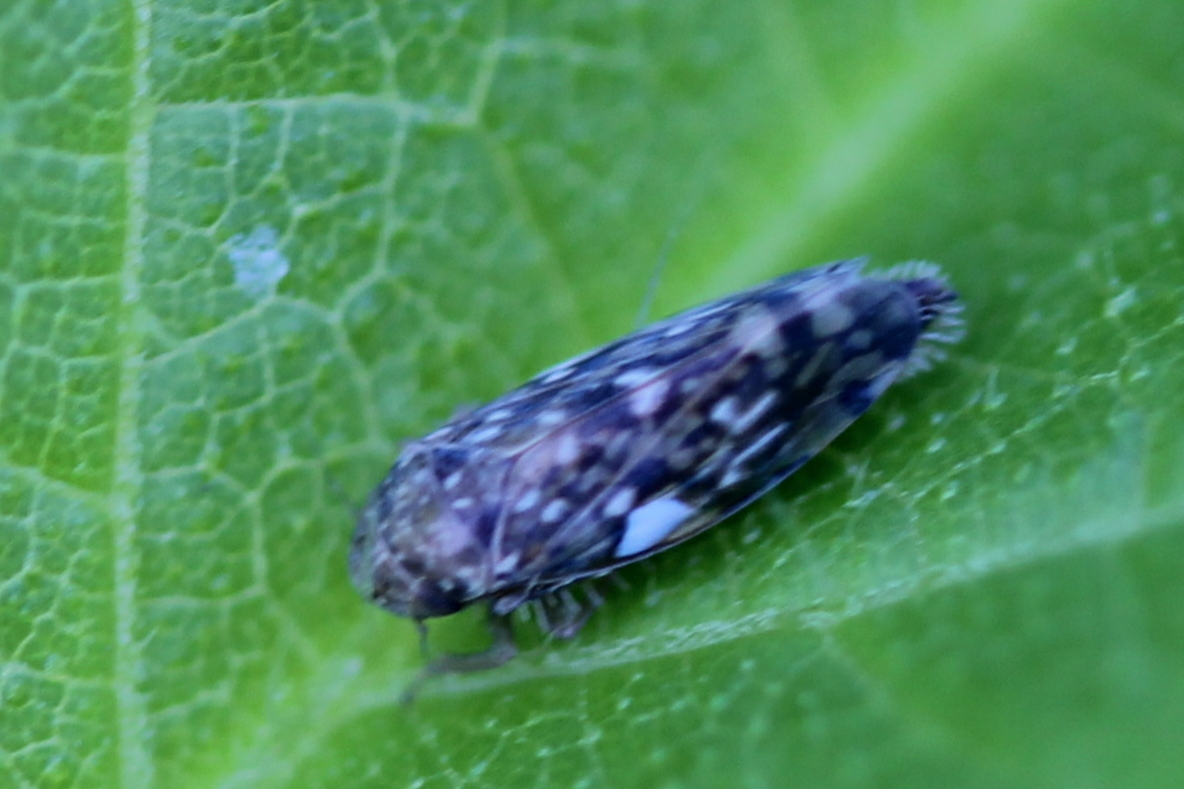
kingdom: Animalia
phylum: Arthropoda
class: Insecta
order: Hemiptera
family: Cicadellidae
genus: Xestocephalus
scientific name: Xestocephalus
